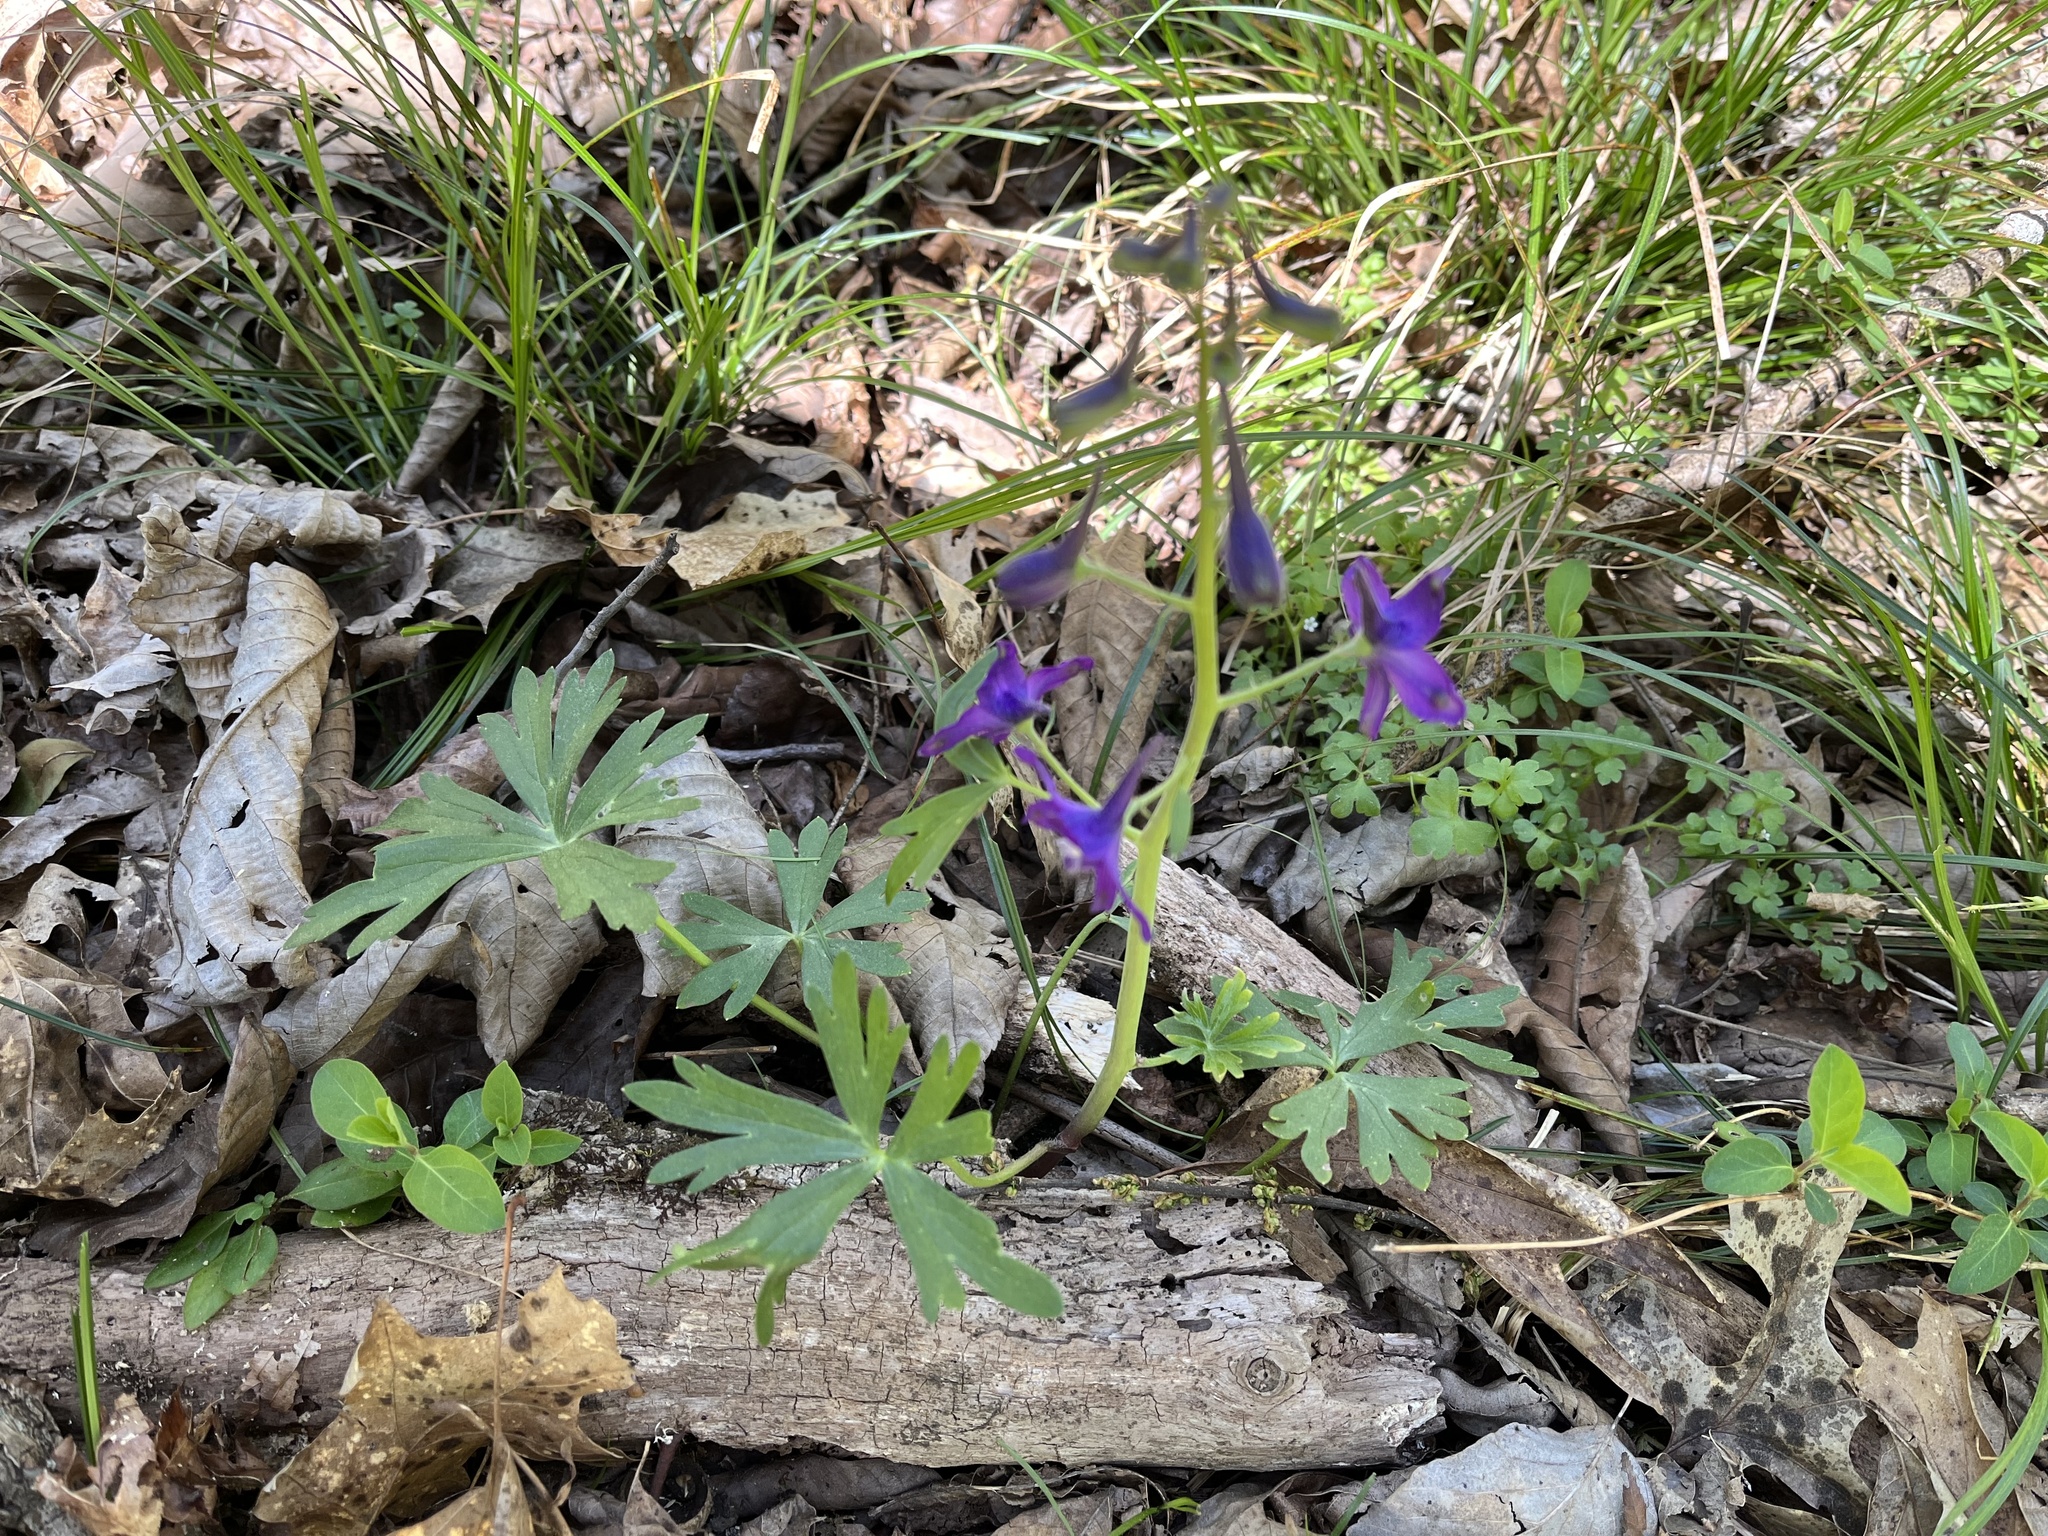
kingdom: Plantae
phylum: Tracheophyta
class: Magnoliopsida
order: Ranunculales
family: Ranunculaceae
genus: Delphinium
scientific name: Delphinium tricorne
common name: Dwarf larkspur
